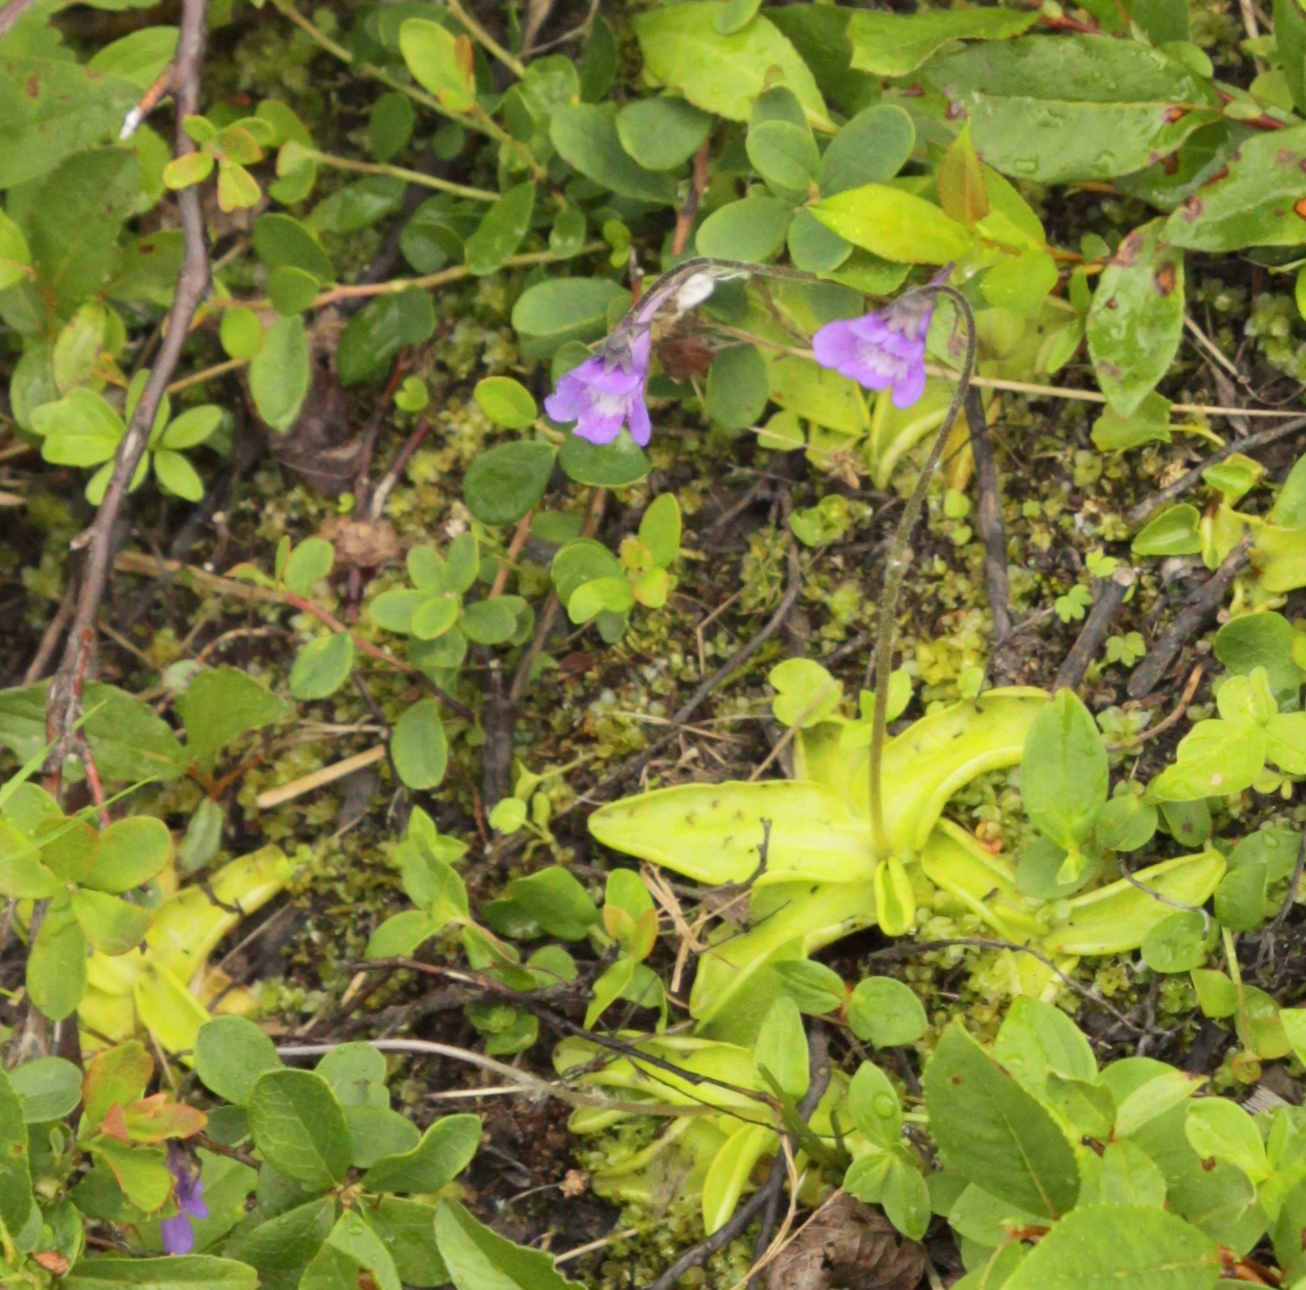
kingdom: Plantae
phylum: Tracheophyta
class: Magnoliopsida
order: Lamiales
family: Lentibulariaceae
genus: Pinguicula
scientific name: Pinguicula vulgaris
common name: Common butterwort
